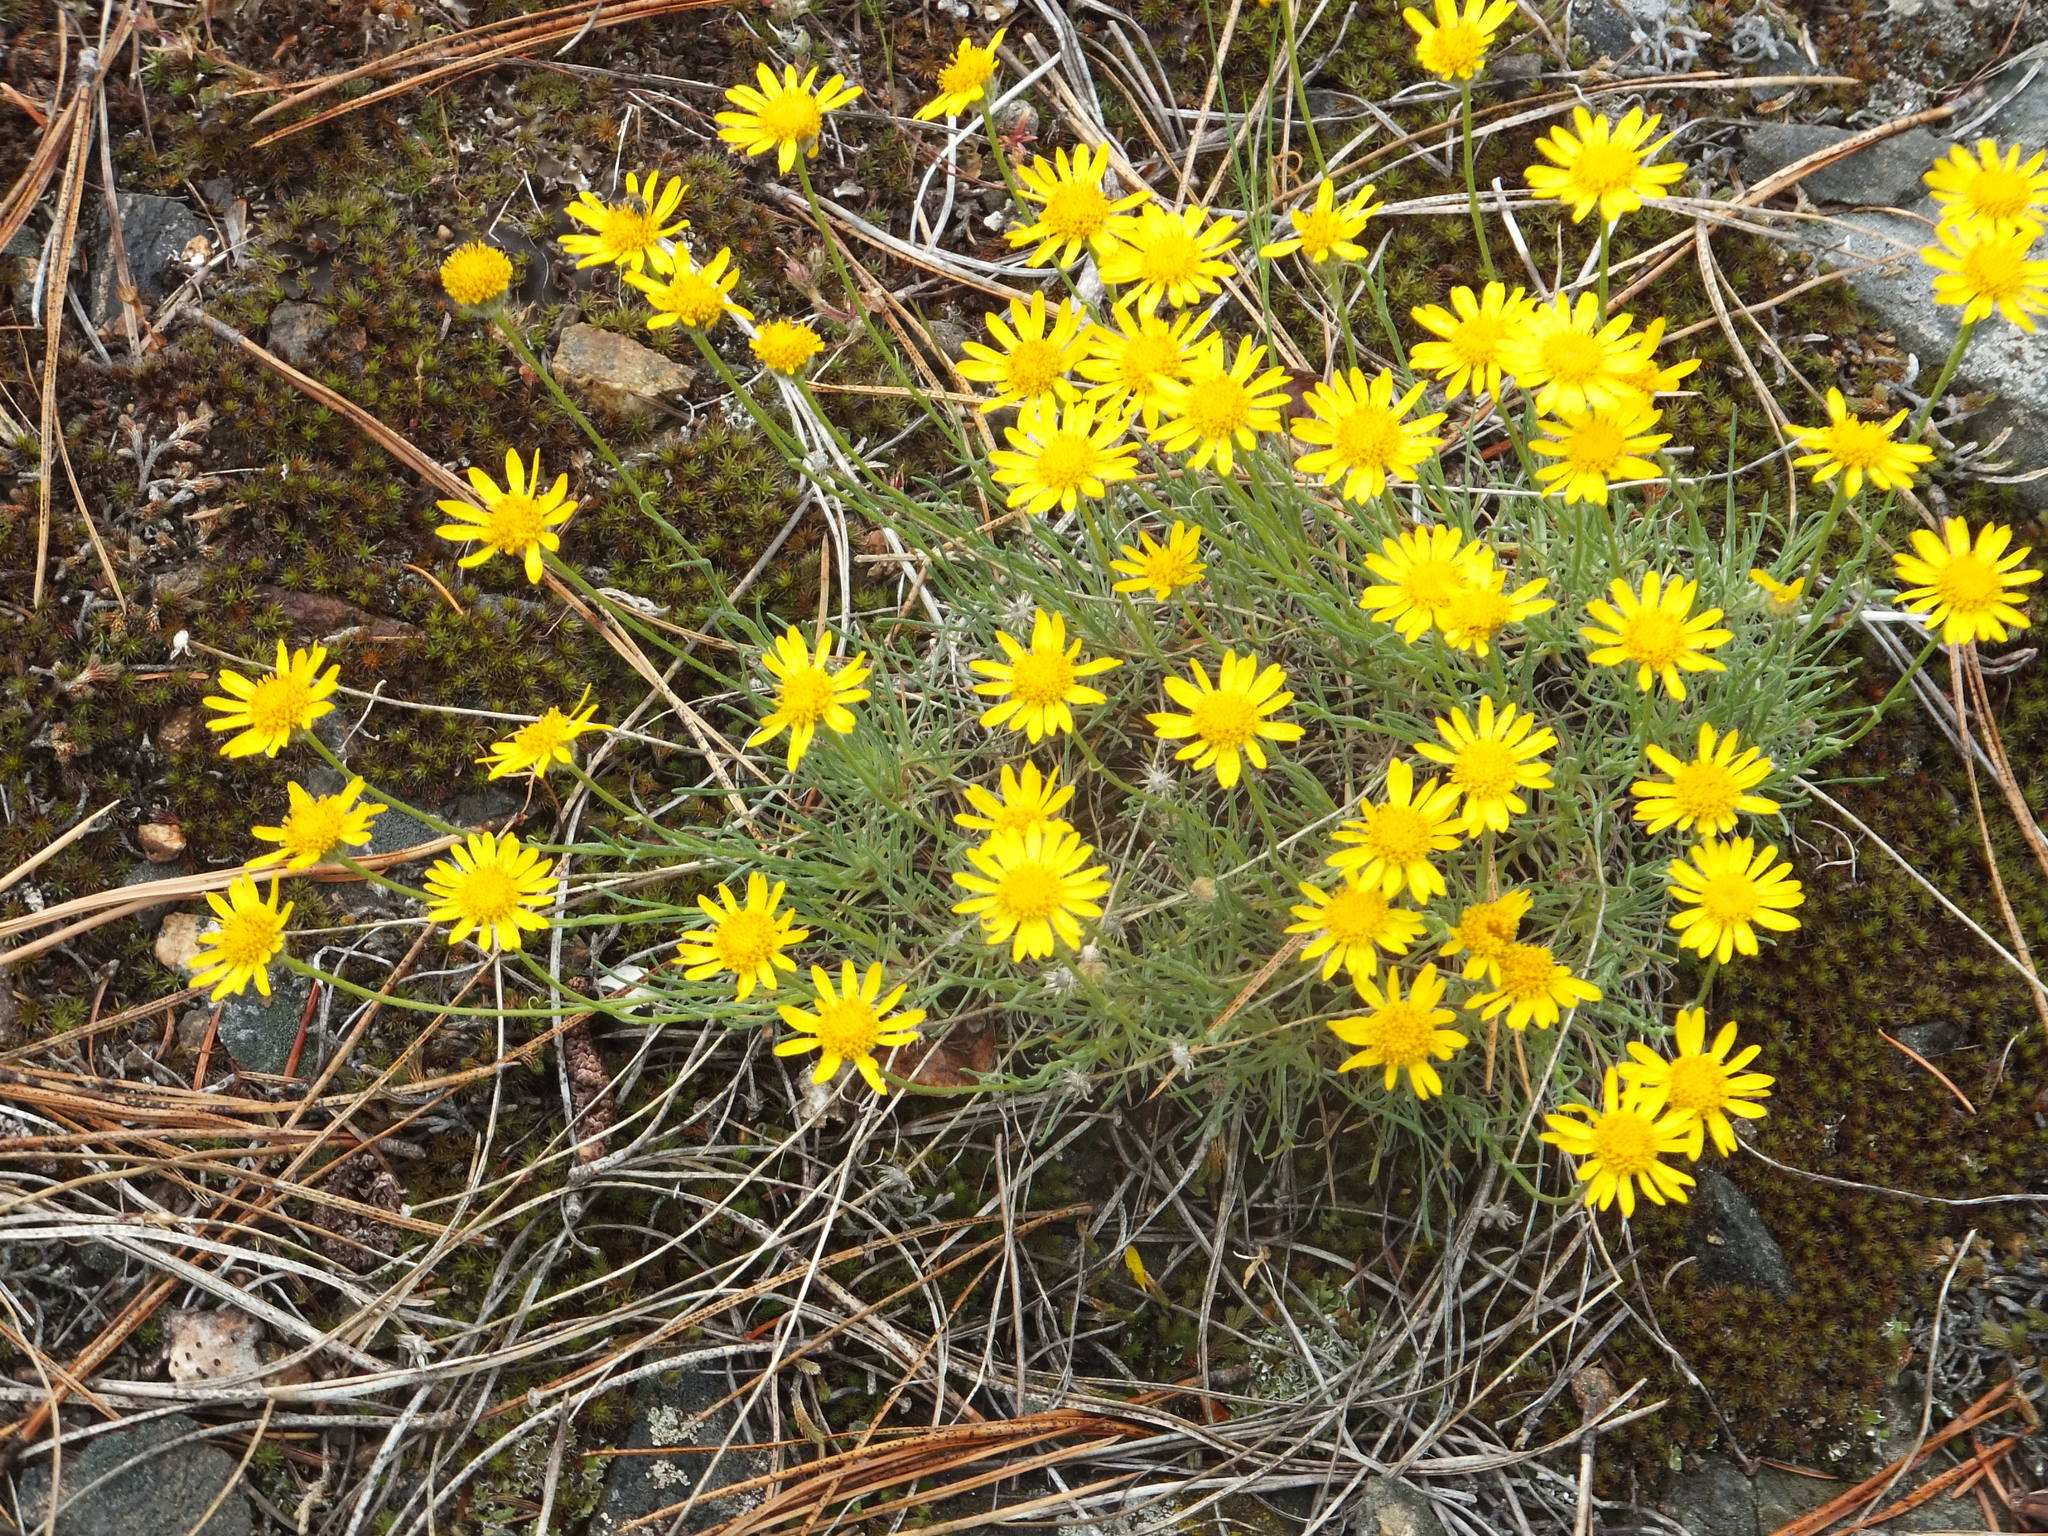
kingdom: Plantae
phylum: Tracheophyta
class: Magnoliopsida
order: Asterales
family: Asteraceae
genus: Erigeron
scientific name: Erigeron linearis
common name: Desert yellow fleabane
